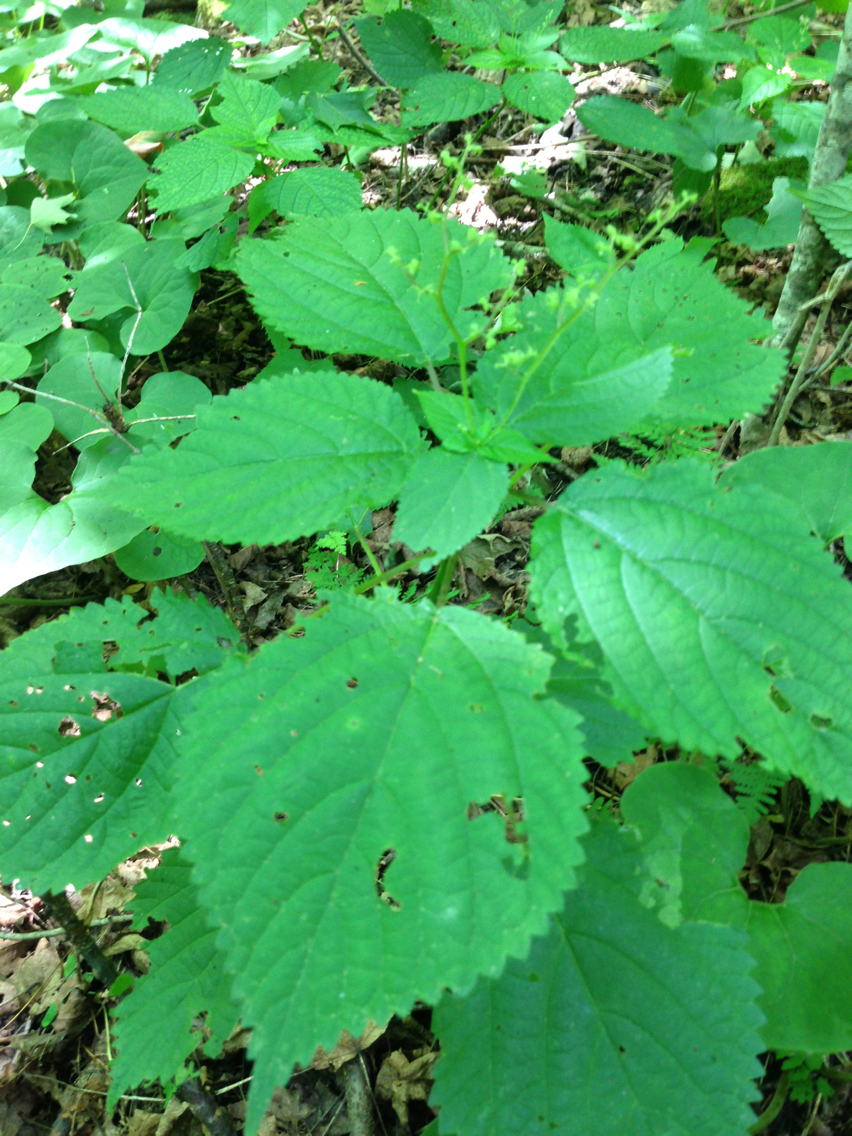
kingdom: Plantae
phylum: Tracheophyta
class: Magnoliopsida
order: Rosales
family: Urticaceae
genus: Laportea
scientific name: Laportea canadensis
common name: Canada nettle
